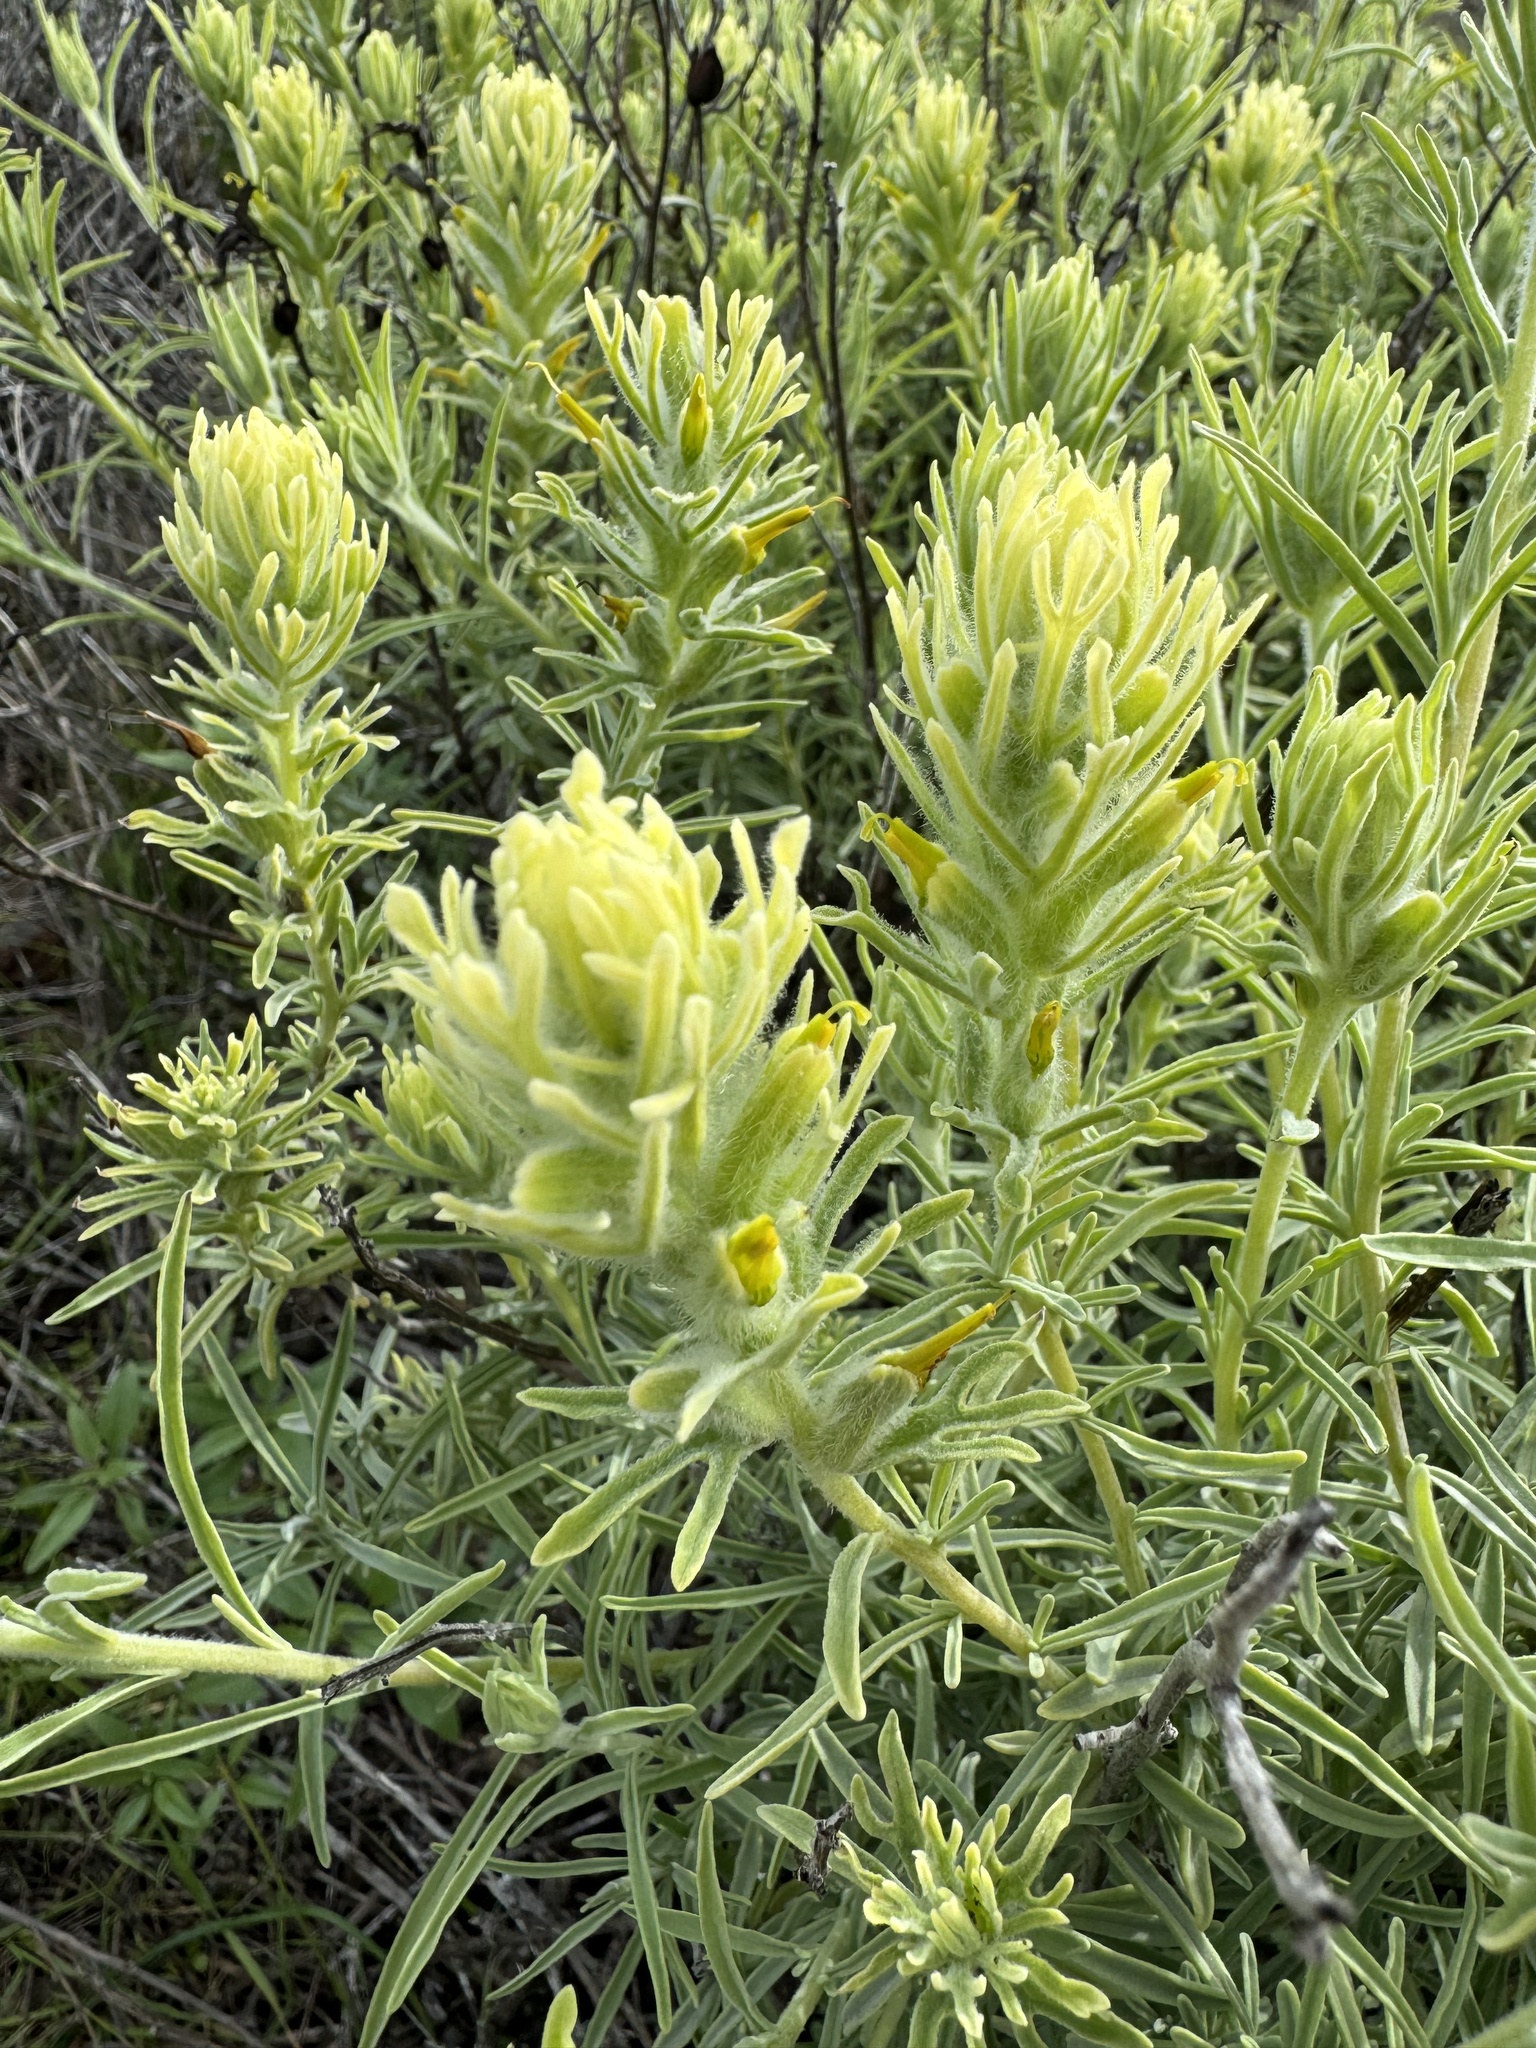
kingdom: Plantae
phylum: Tracheophyta
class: Magnoliopsida
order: Lamiales
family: Orobanchaceae
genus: Castilleja
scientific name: Castilleja grisea
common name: San clemente island indian paintbrush
